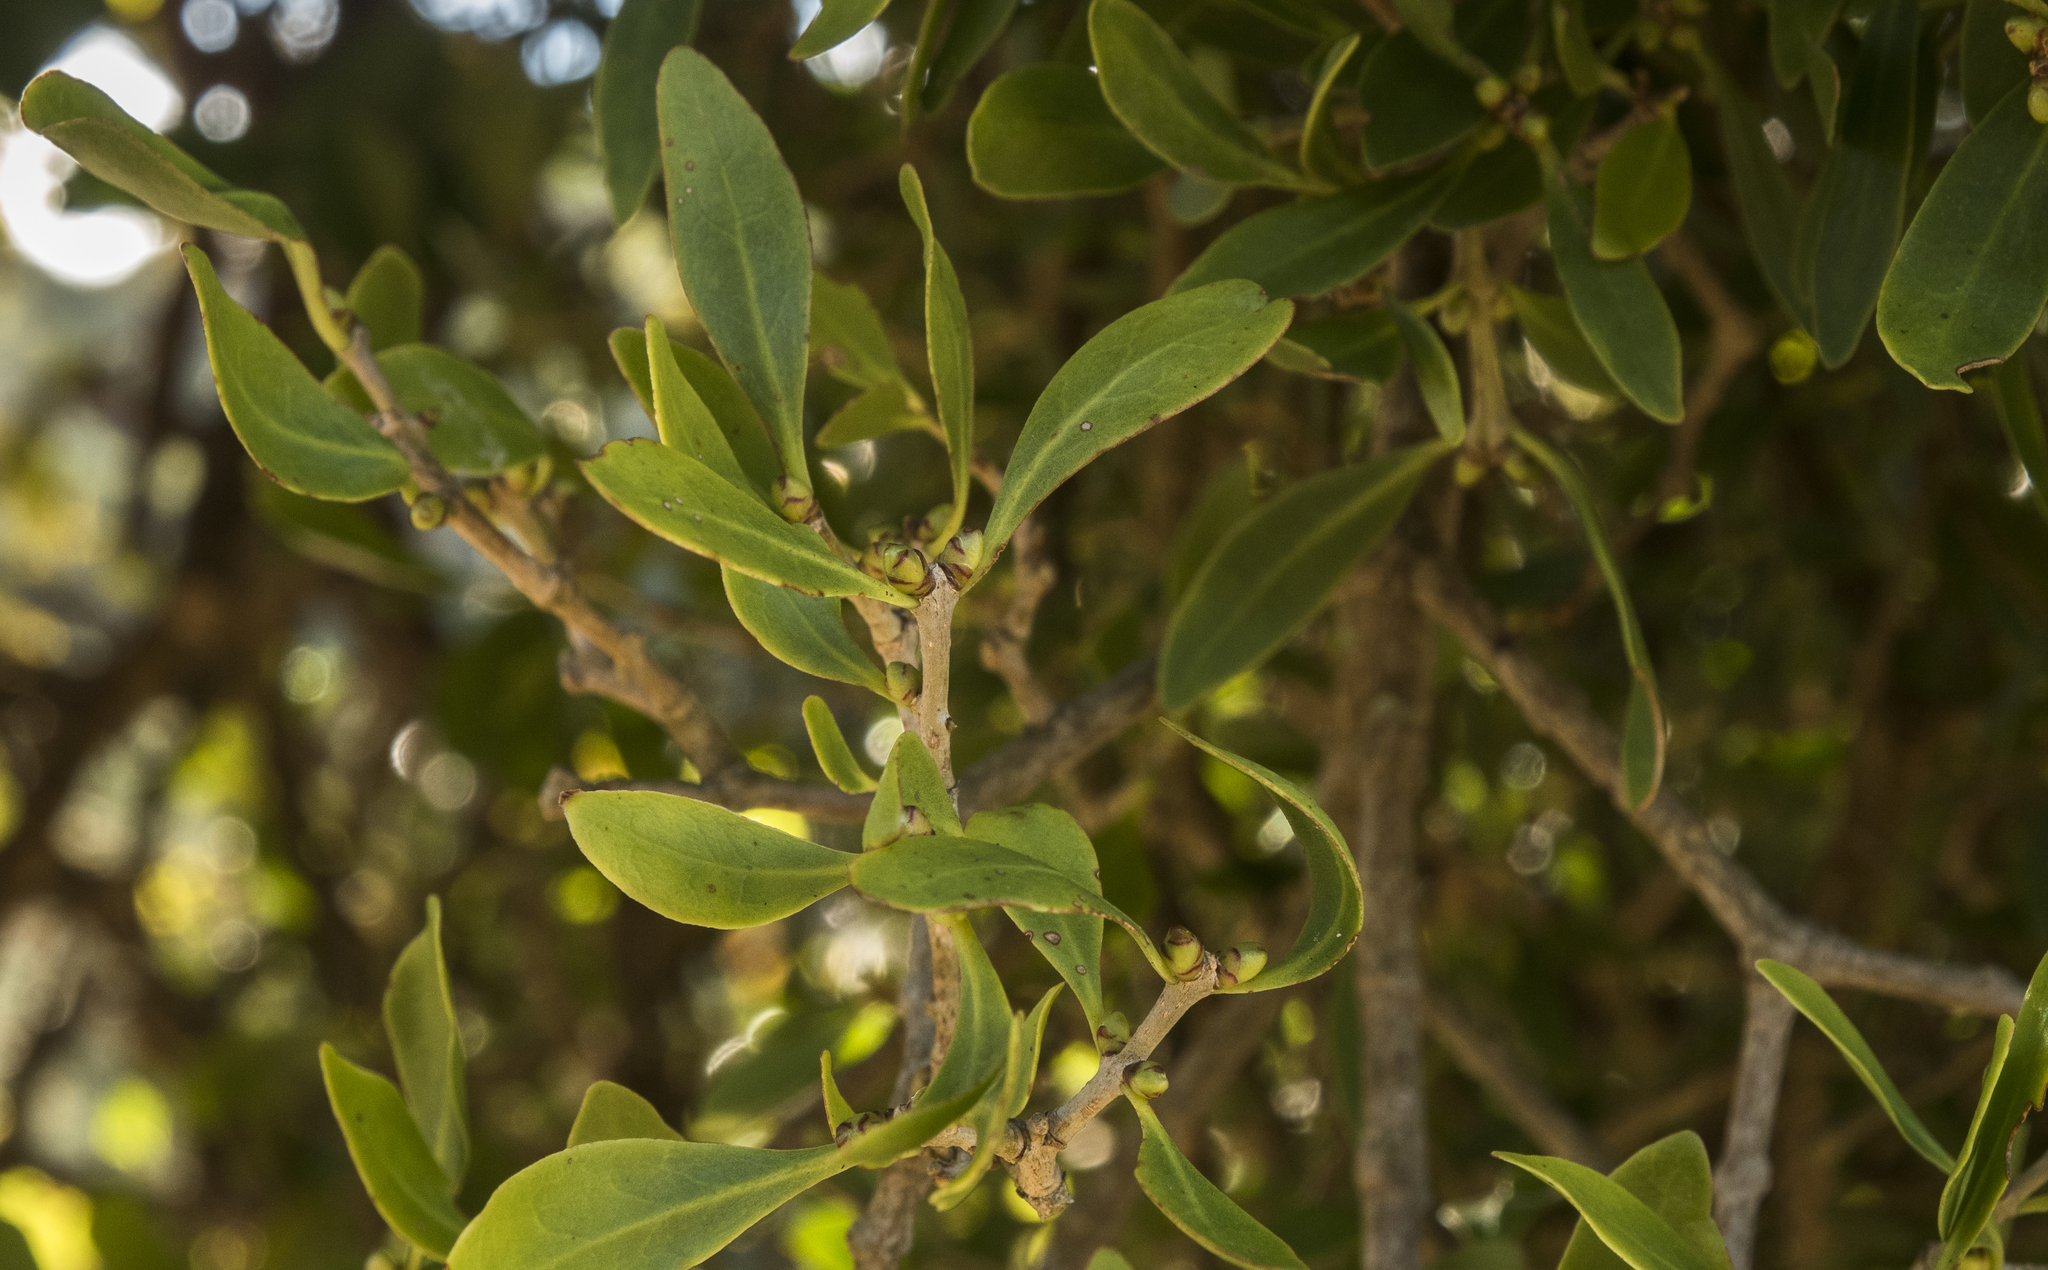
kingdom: Plantae
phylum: Tracheophyta
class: Magnoliopsida
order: Santalales
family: Loranthaceae
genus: Tupeia
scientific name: Tupeia antarctica
